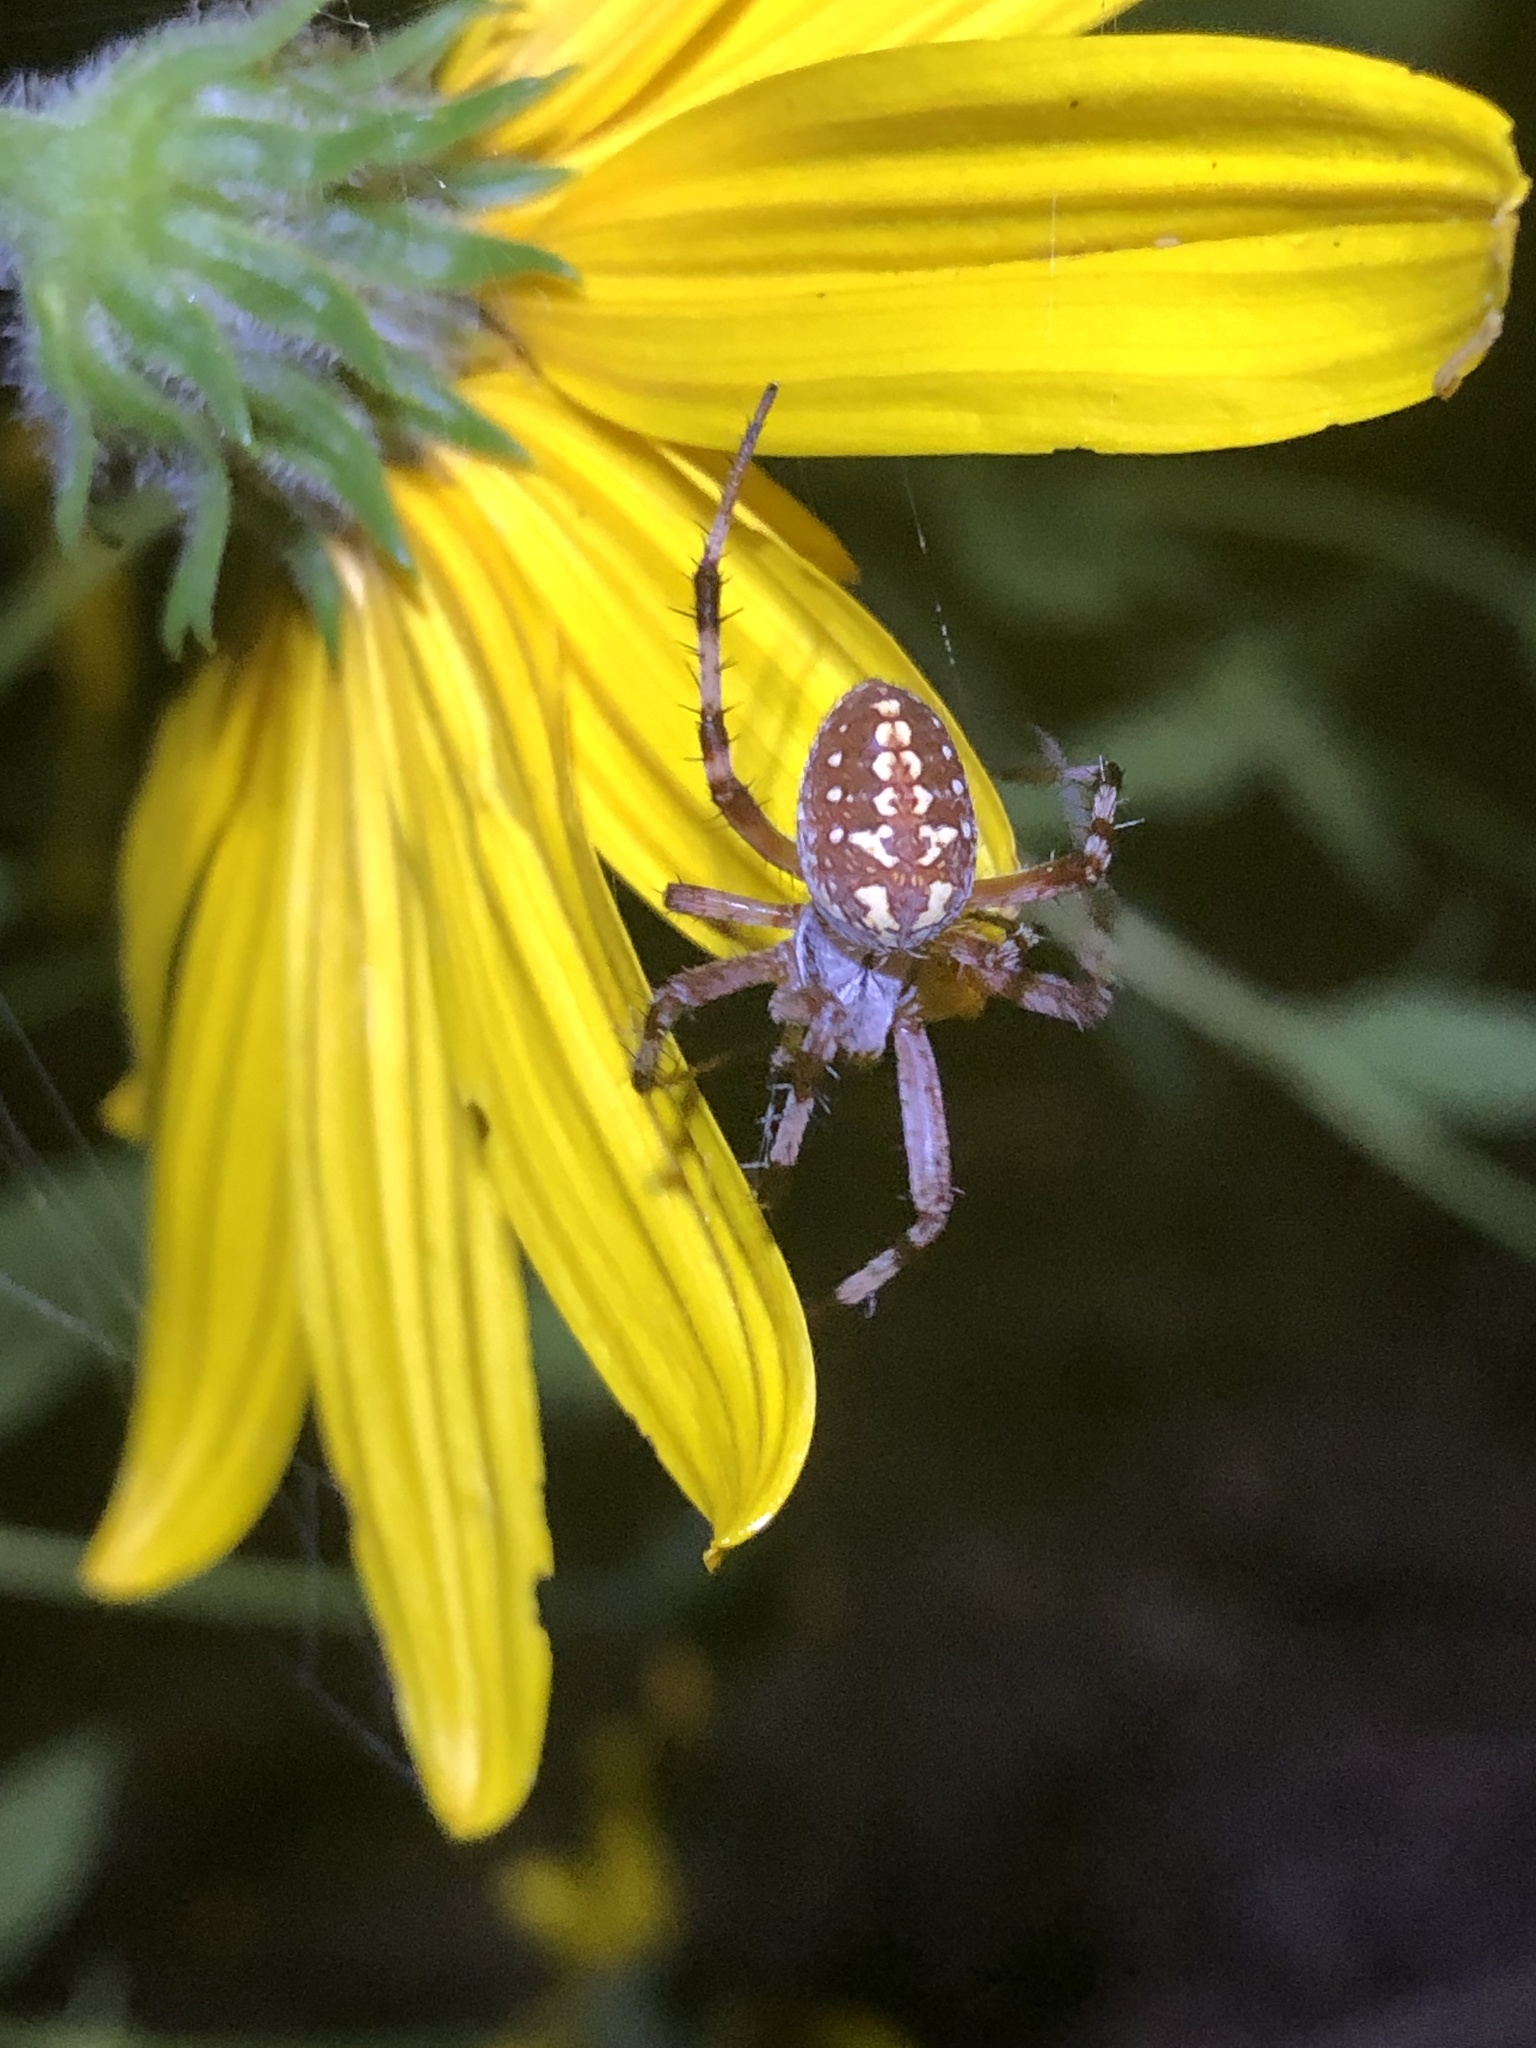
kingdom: Animalia
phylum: Arthropoda
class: Arachnida
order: Araneae
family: Araneidae
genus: Neoscona
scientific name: Neoscona oaxacensis
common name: Orb weavers
